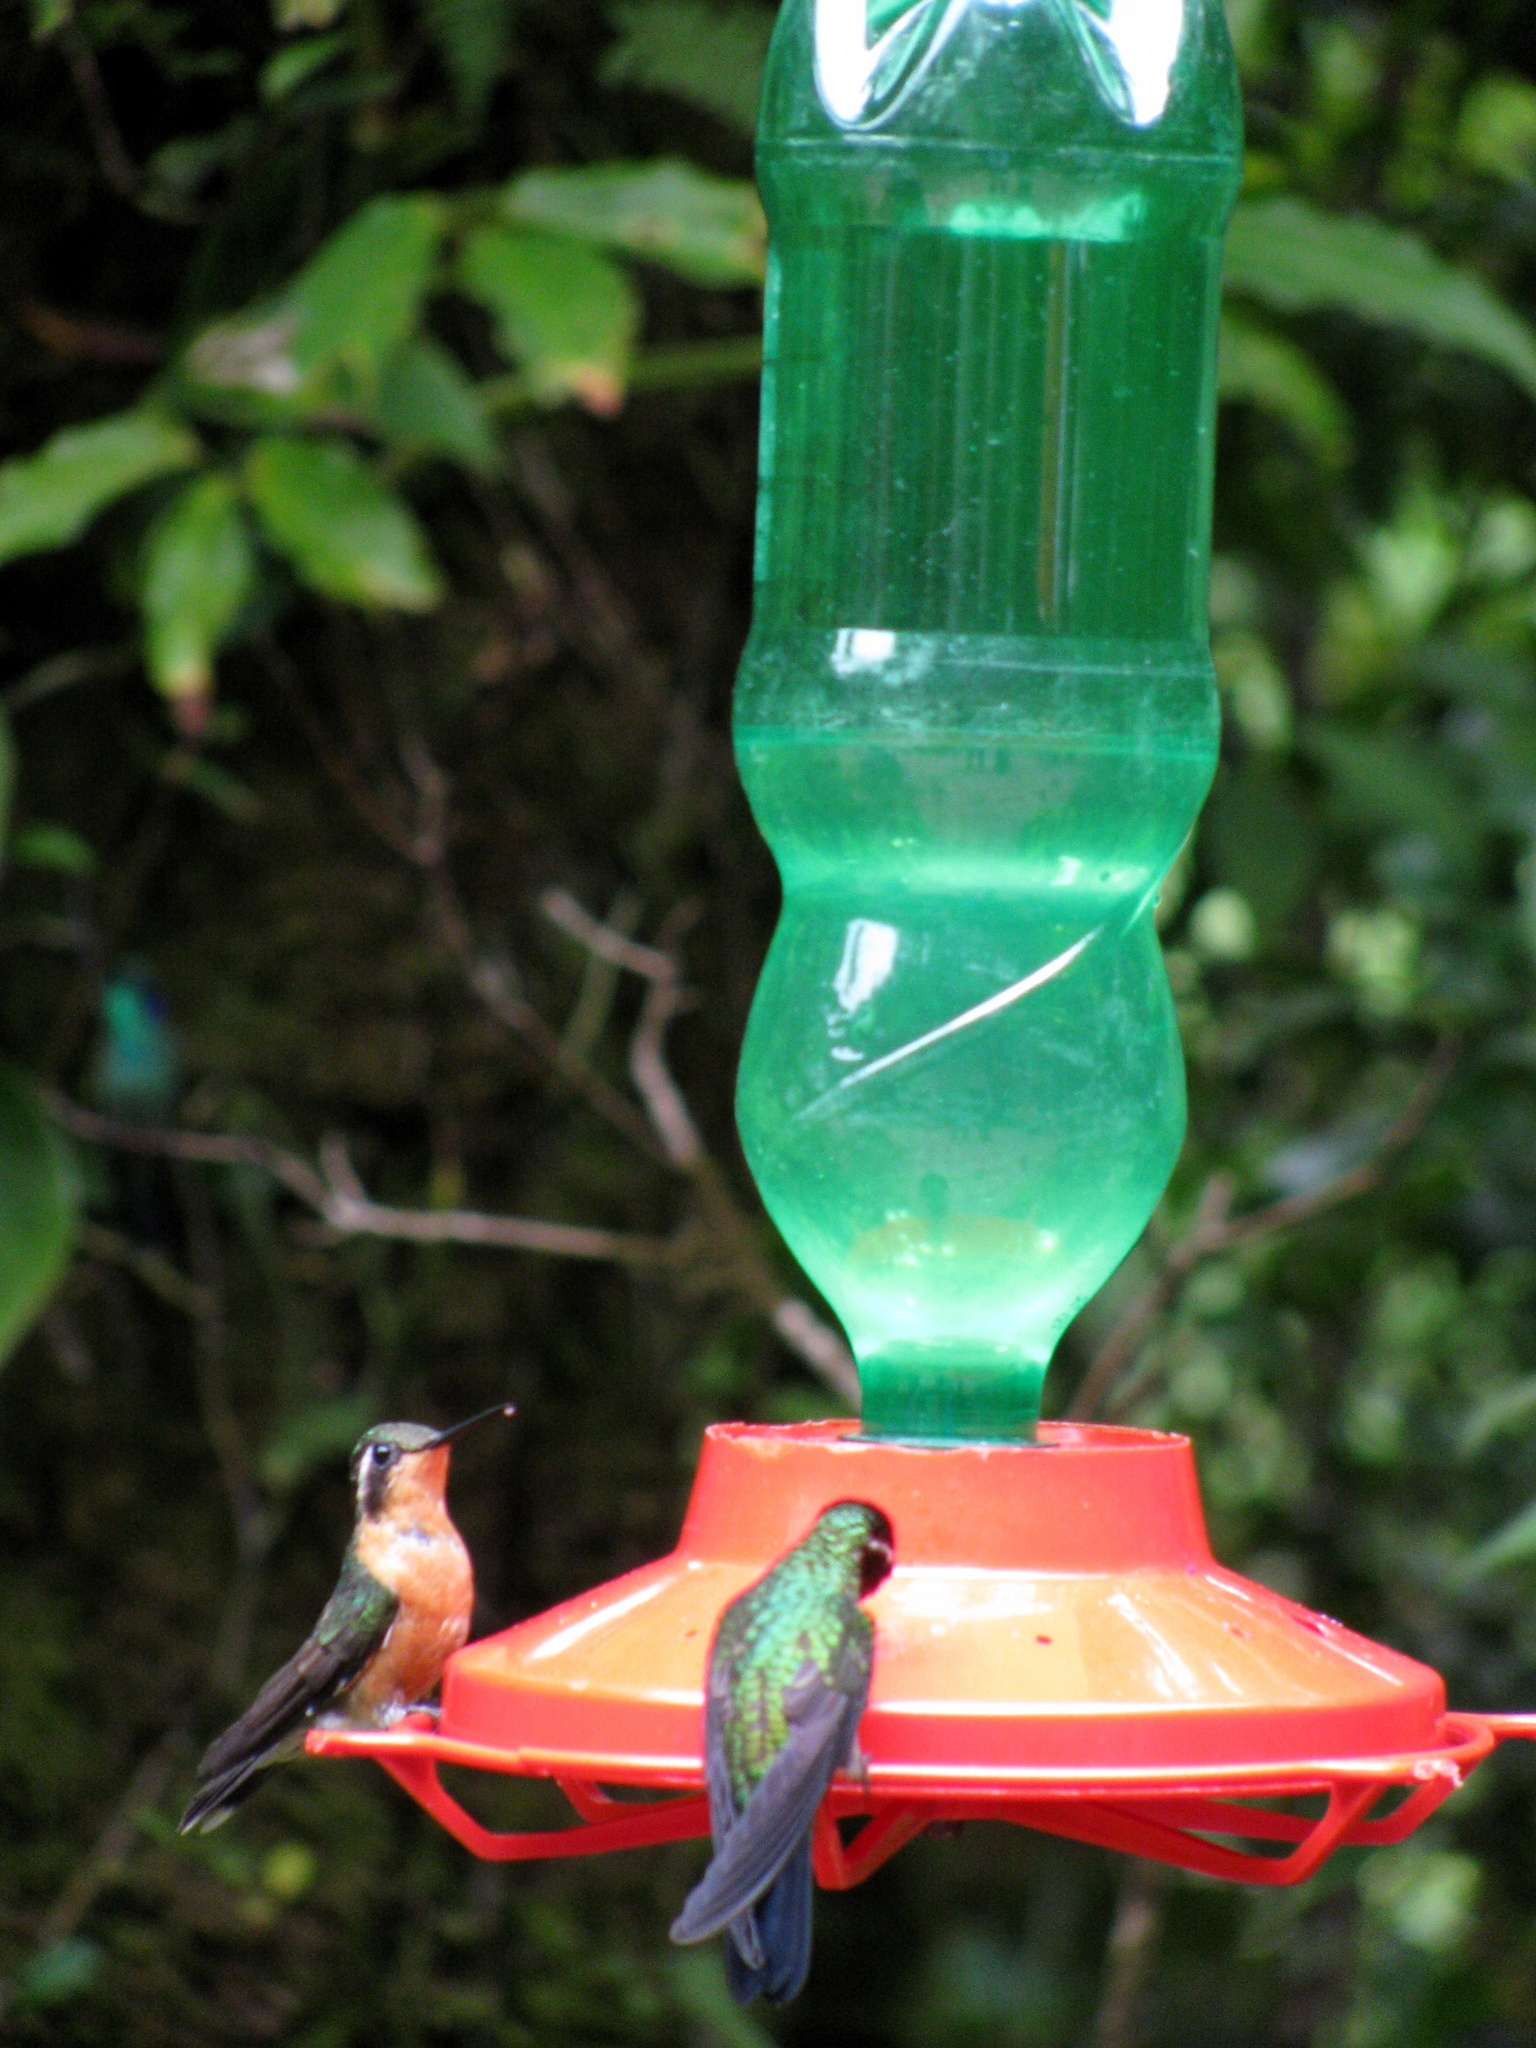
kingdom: Animalia
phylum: Chordata
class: Aves
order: Apodiformes
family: Trochilidae
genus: Lampornis
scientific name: Lampornis calolaemus
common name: Purple-throated mountain-gem
